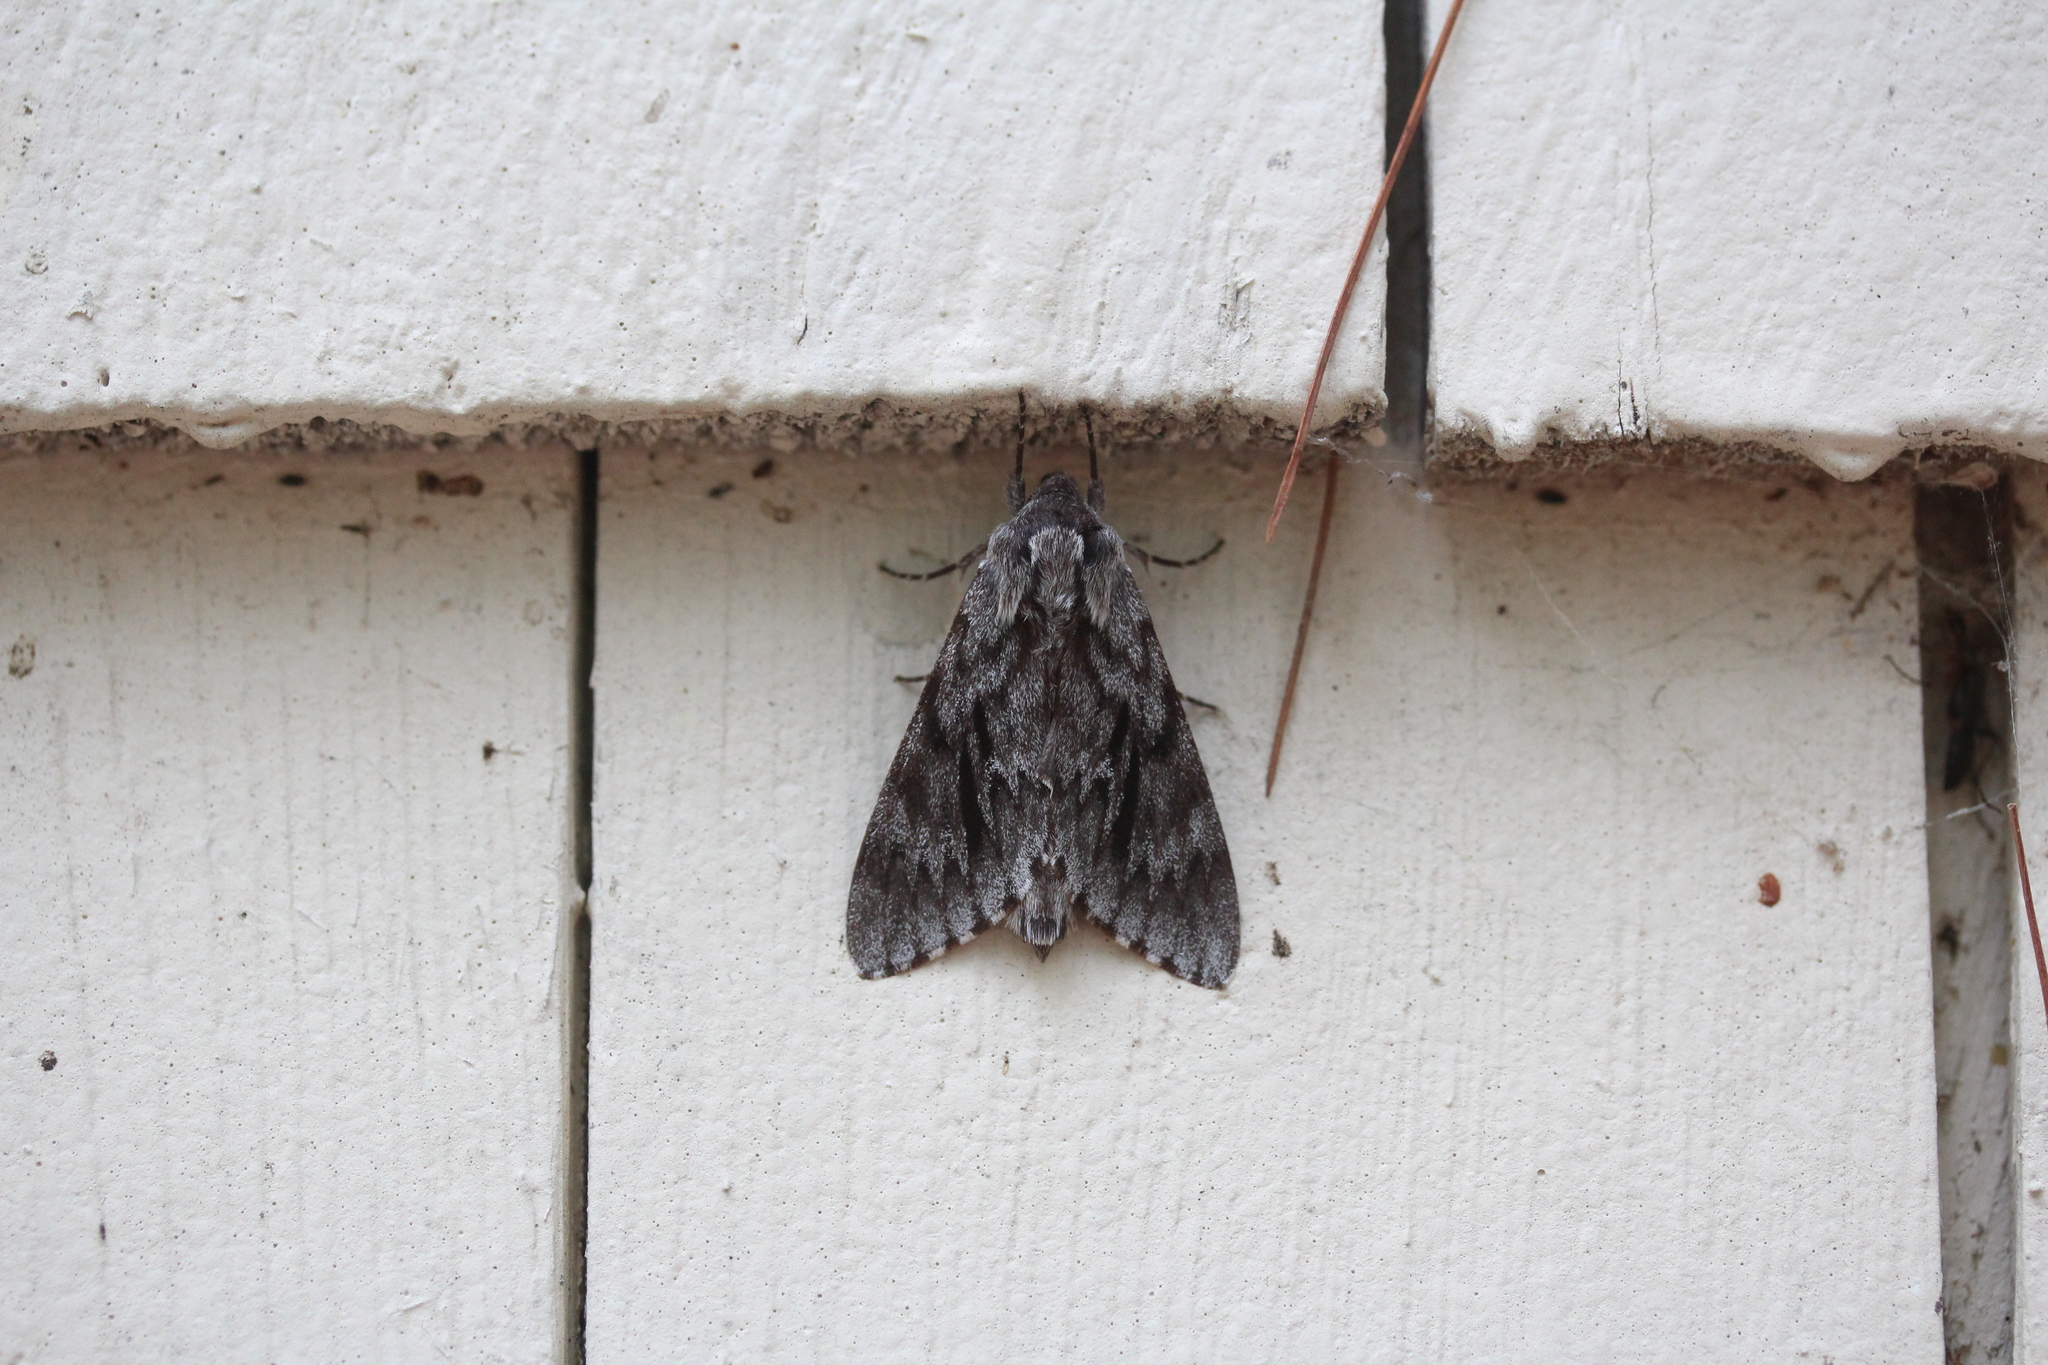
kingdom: Animalia
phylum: Arthropoda
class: Insecta
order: Lepidoptera
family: Sphingidae
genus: Lapara
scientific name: Lapara bombycoides
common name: Northern pine sphinx
